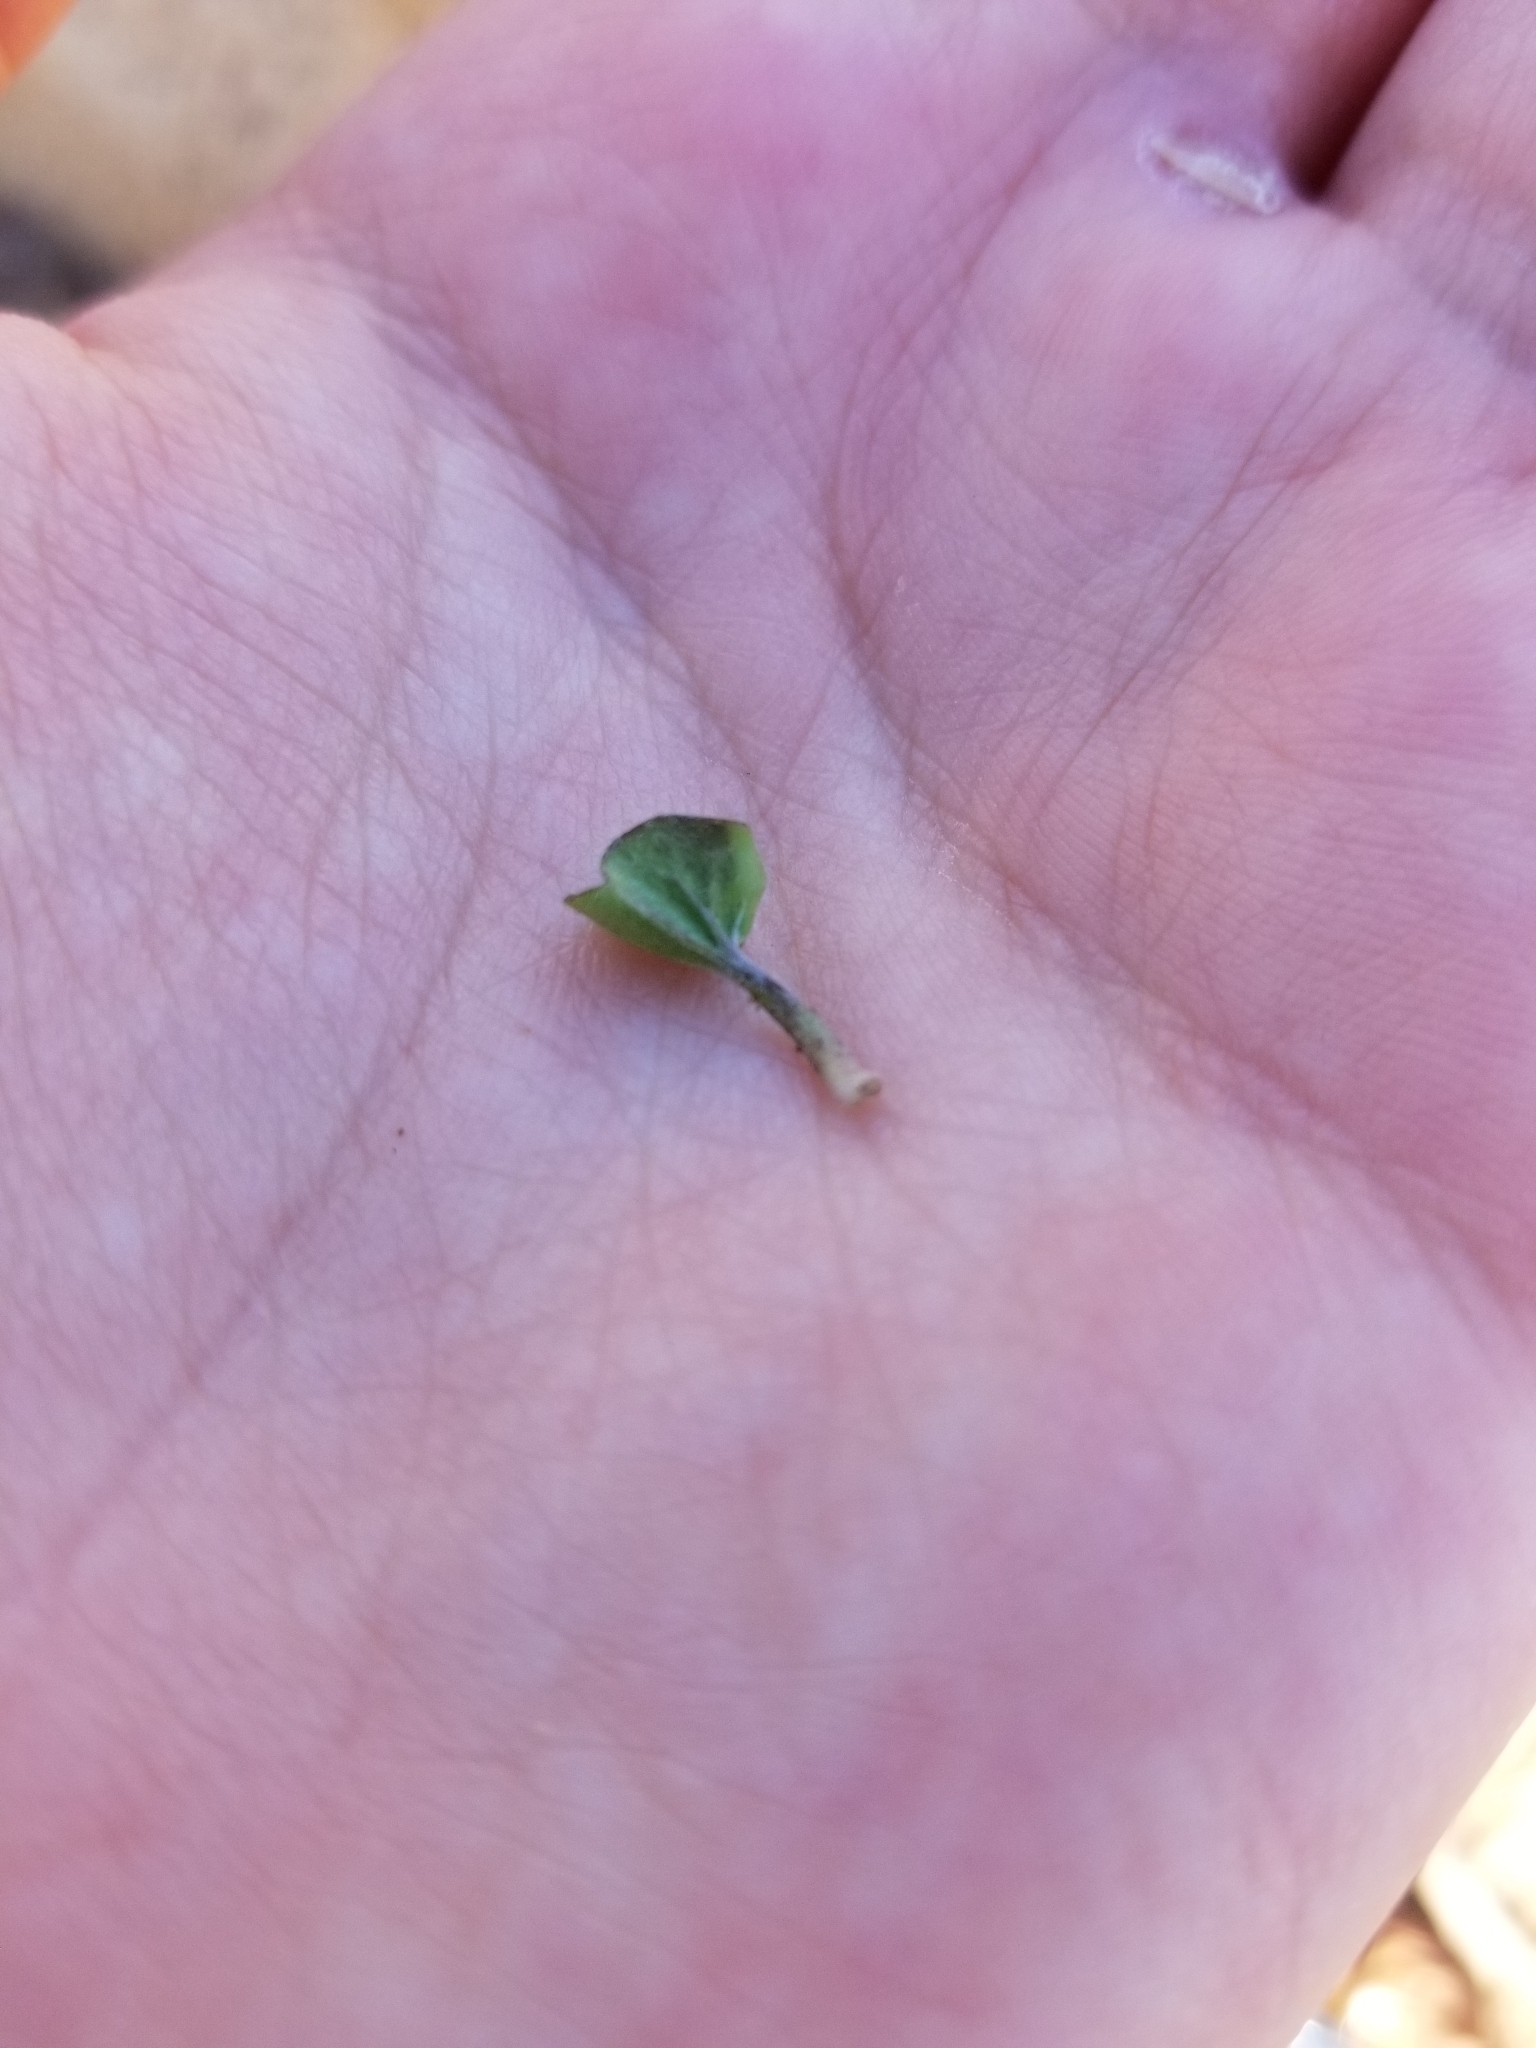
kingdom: Plantae
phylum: Tracheophyta
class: Magnoliopsida
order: Solanales
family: Convolvulaceae
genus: Dichondra
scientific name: Dichondra occidentalis
